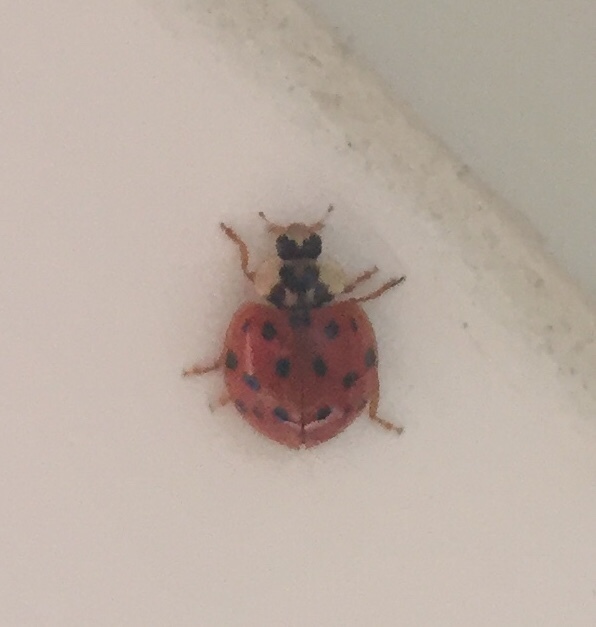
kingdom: Animalia
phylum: Arthropoda
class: Insecta
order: Coleoptera
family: Coccinellidae
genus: Harmonia
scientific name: Harmonia axyridis
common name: Harlequin ladybird
